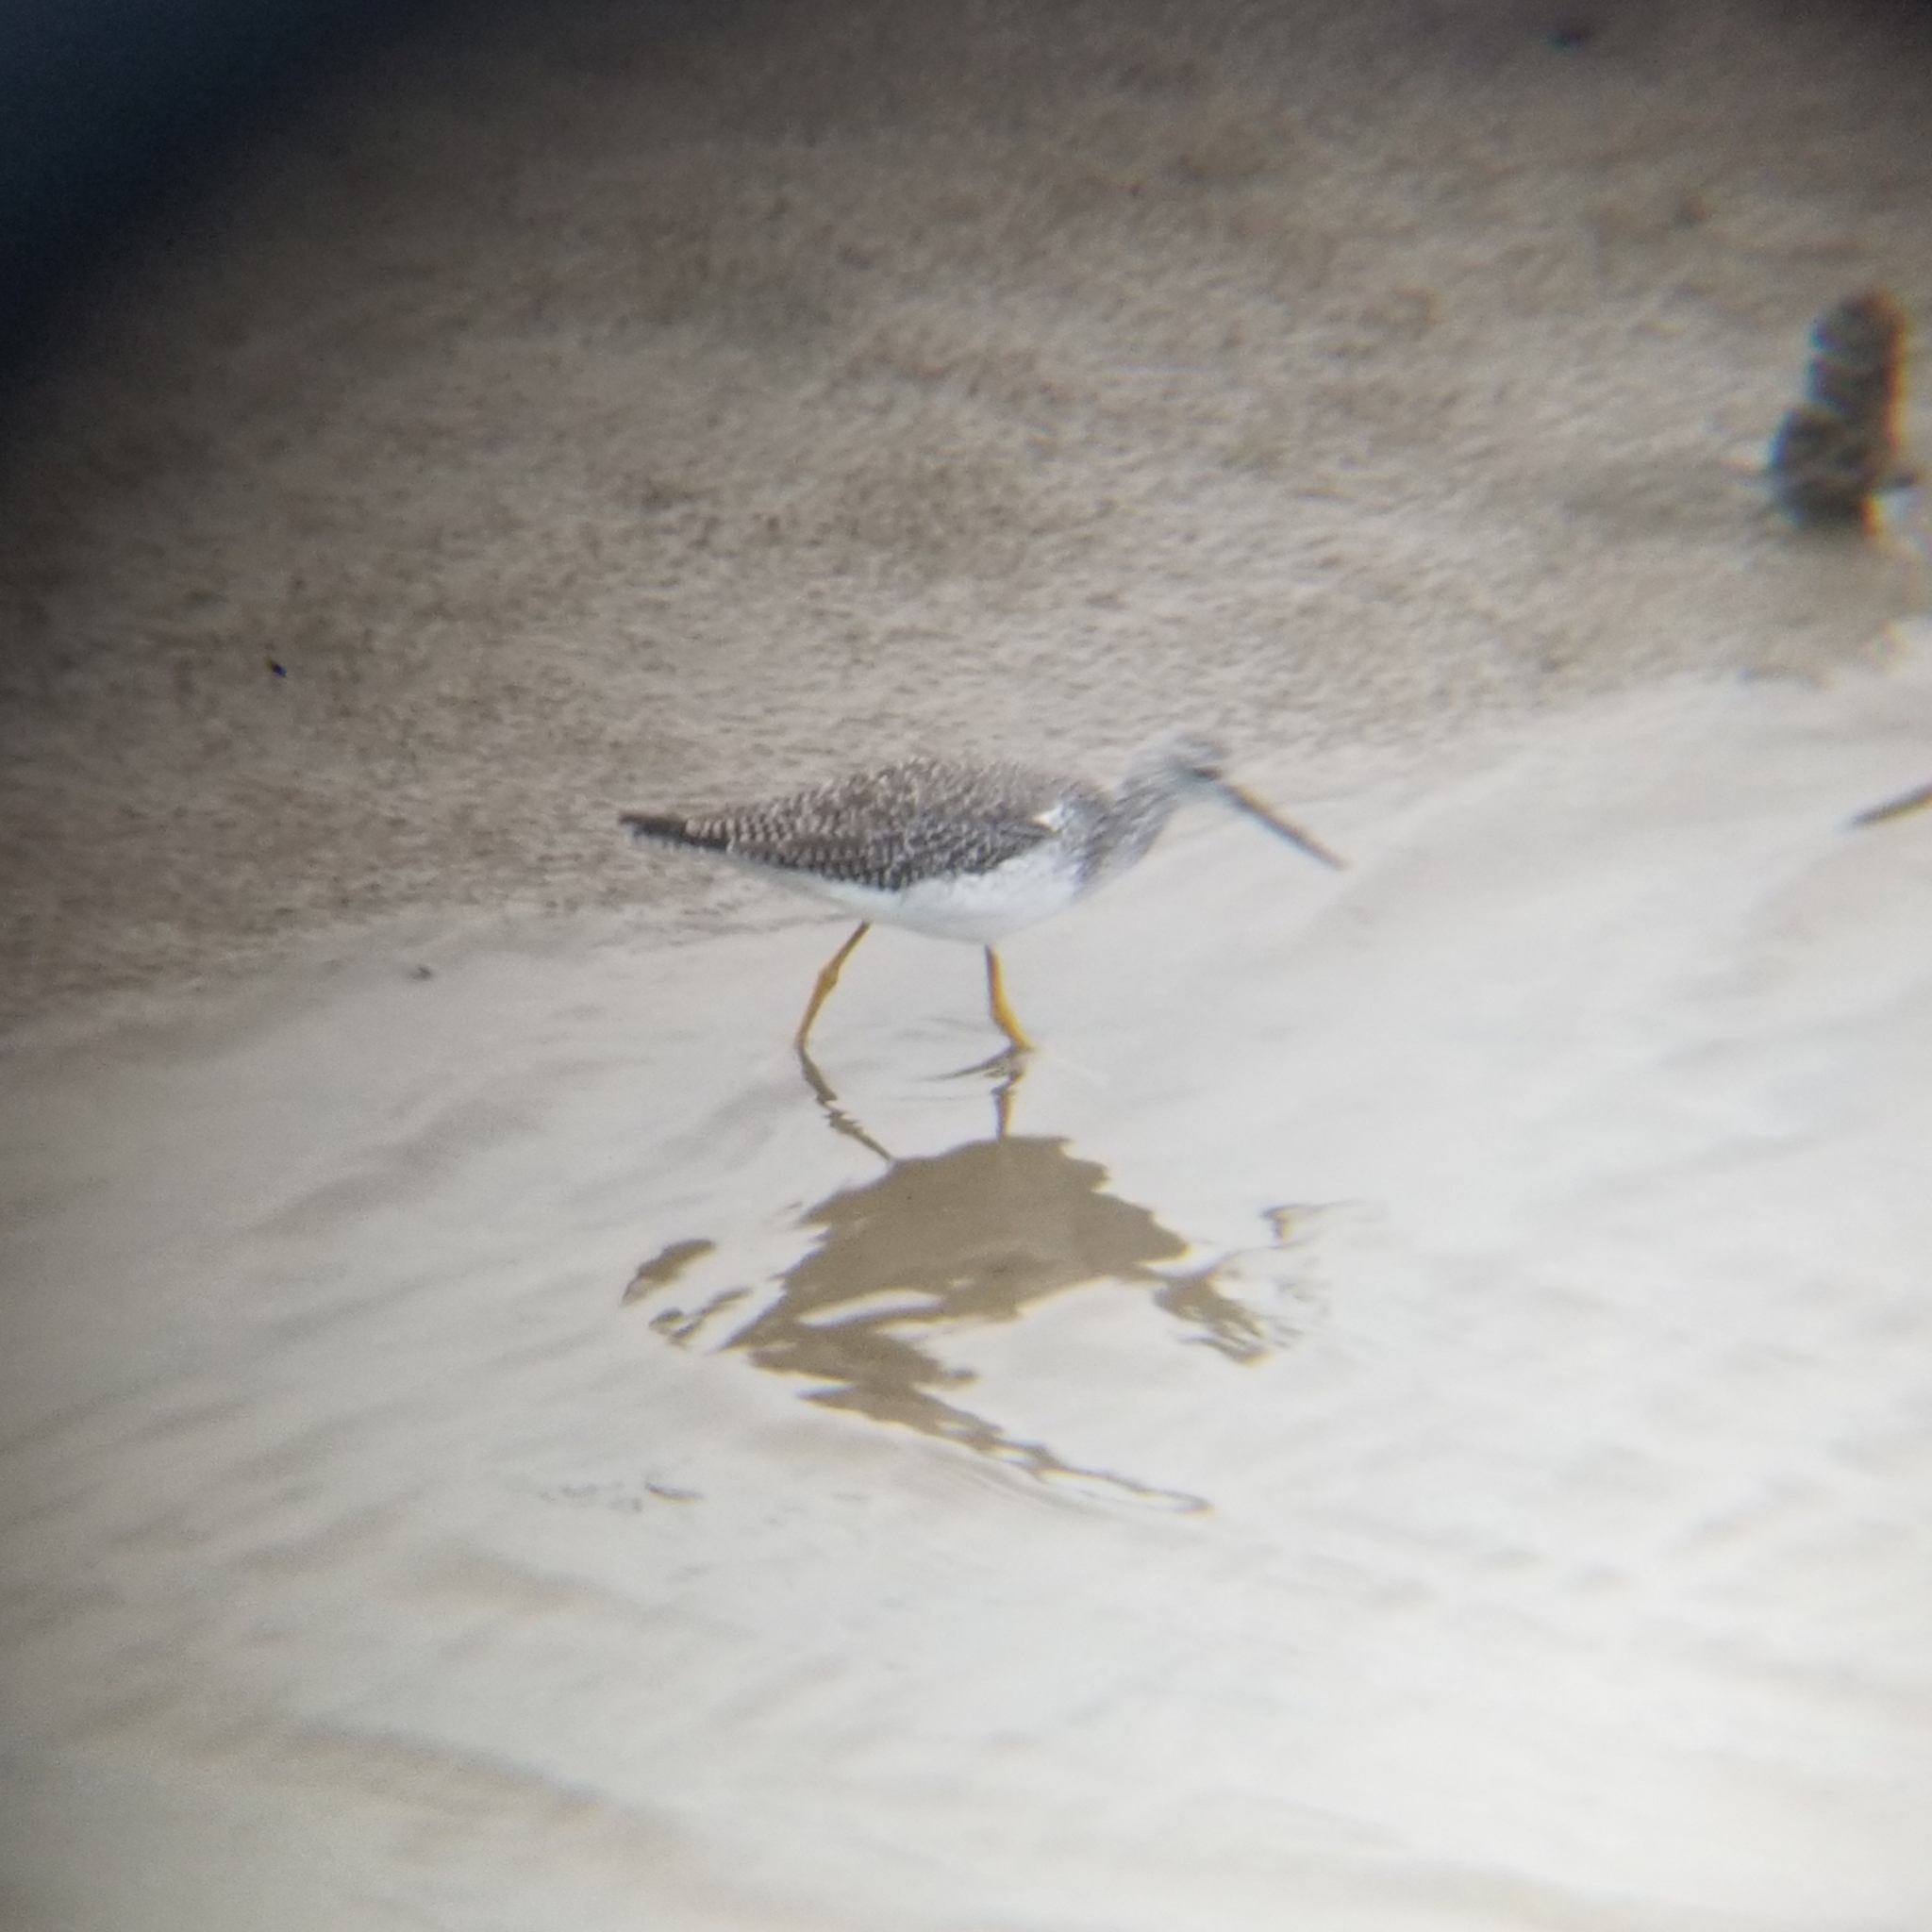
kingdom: Animalia
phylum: Chordata
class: Aves
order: Charadriiformes
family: Scolopacidae
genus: Tringa
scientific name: Tringa melanoleuca
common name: Greater yellowlegs
